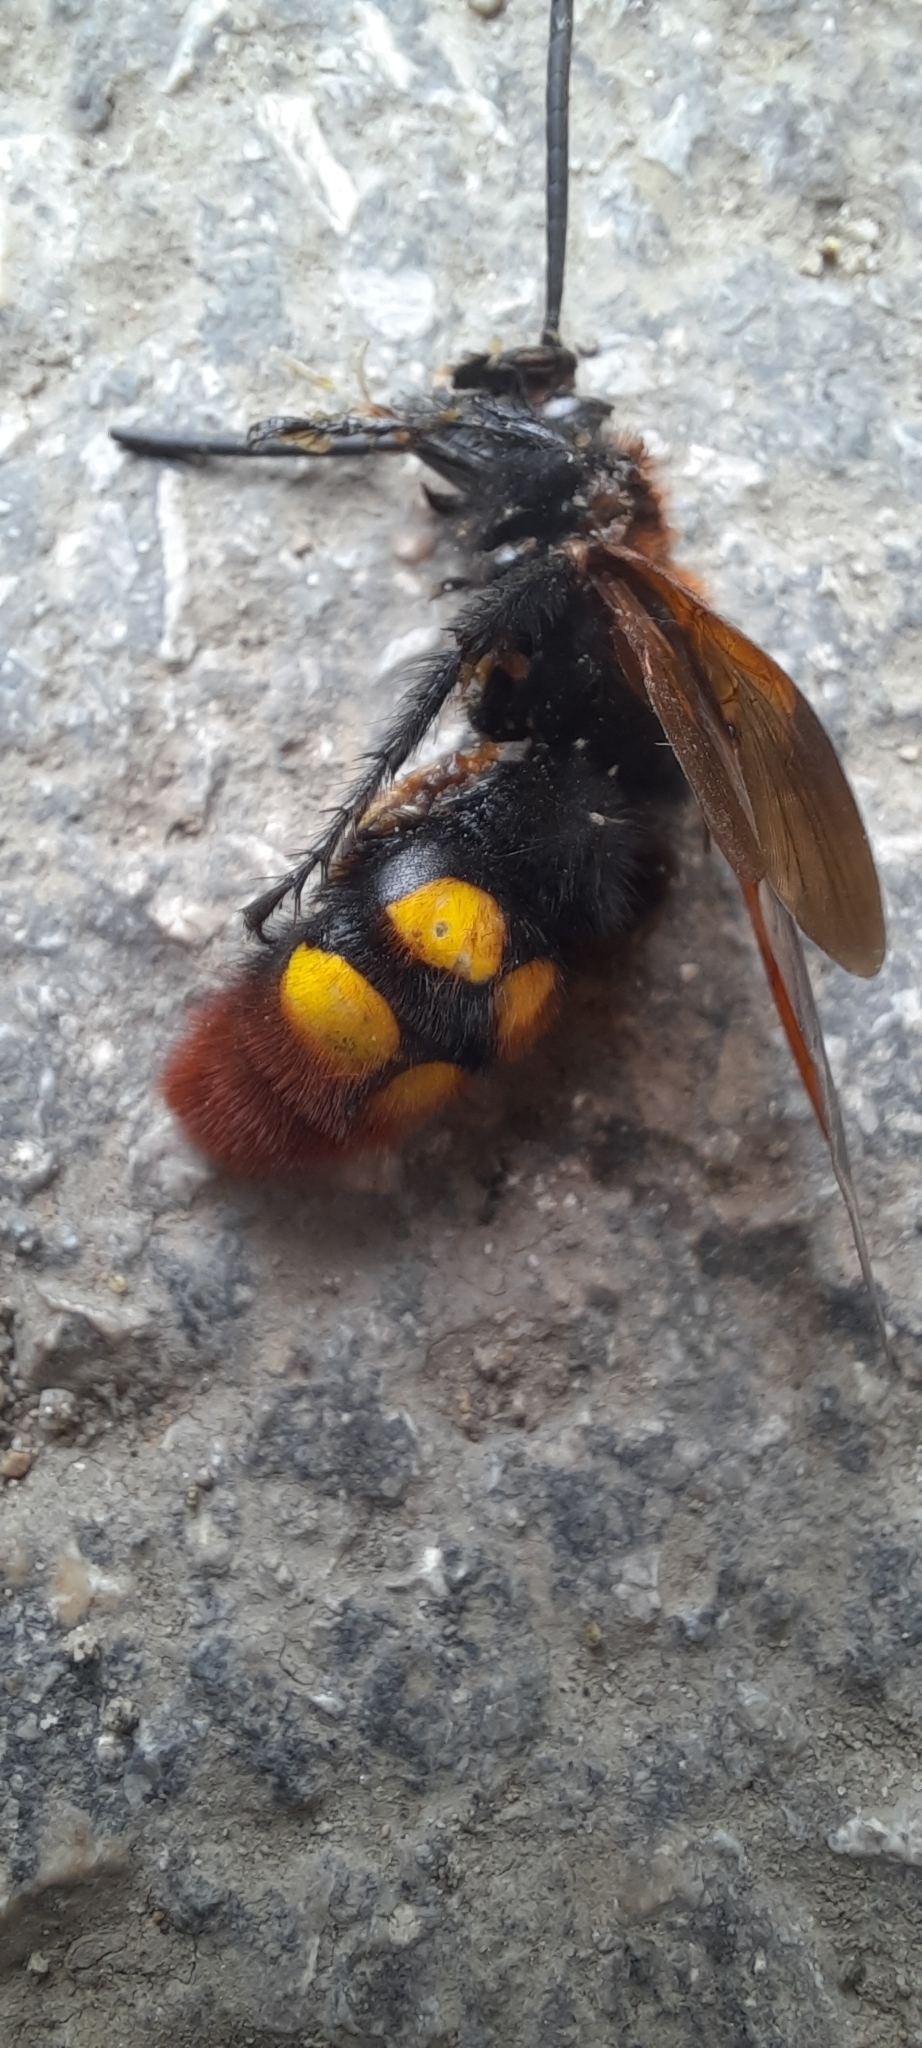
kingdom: Animalia
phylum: Arthropoda
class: Insecta
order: Hymenoptera
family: Scoliidae
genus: Megascolia
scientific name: Megascolia maculata
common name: Mammoth wasp
